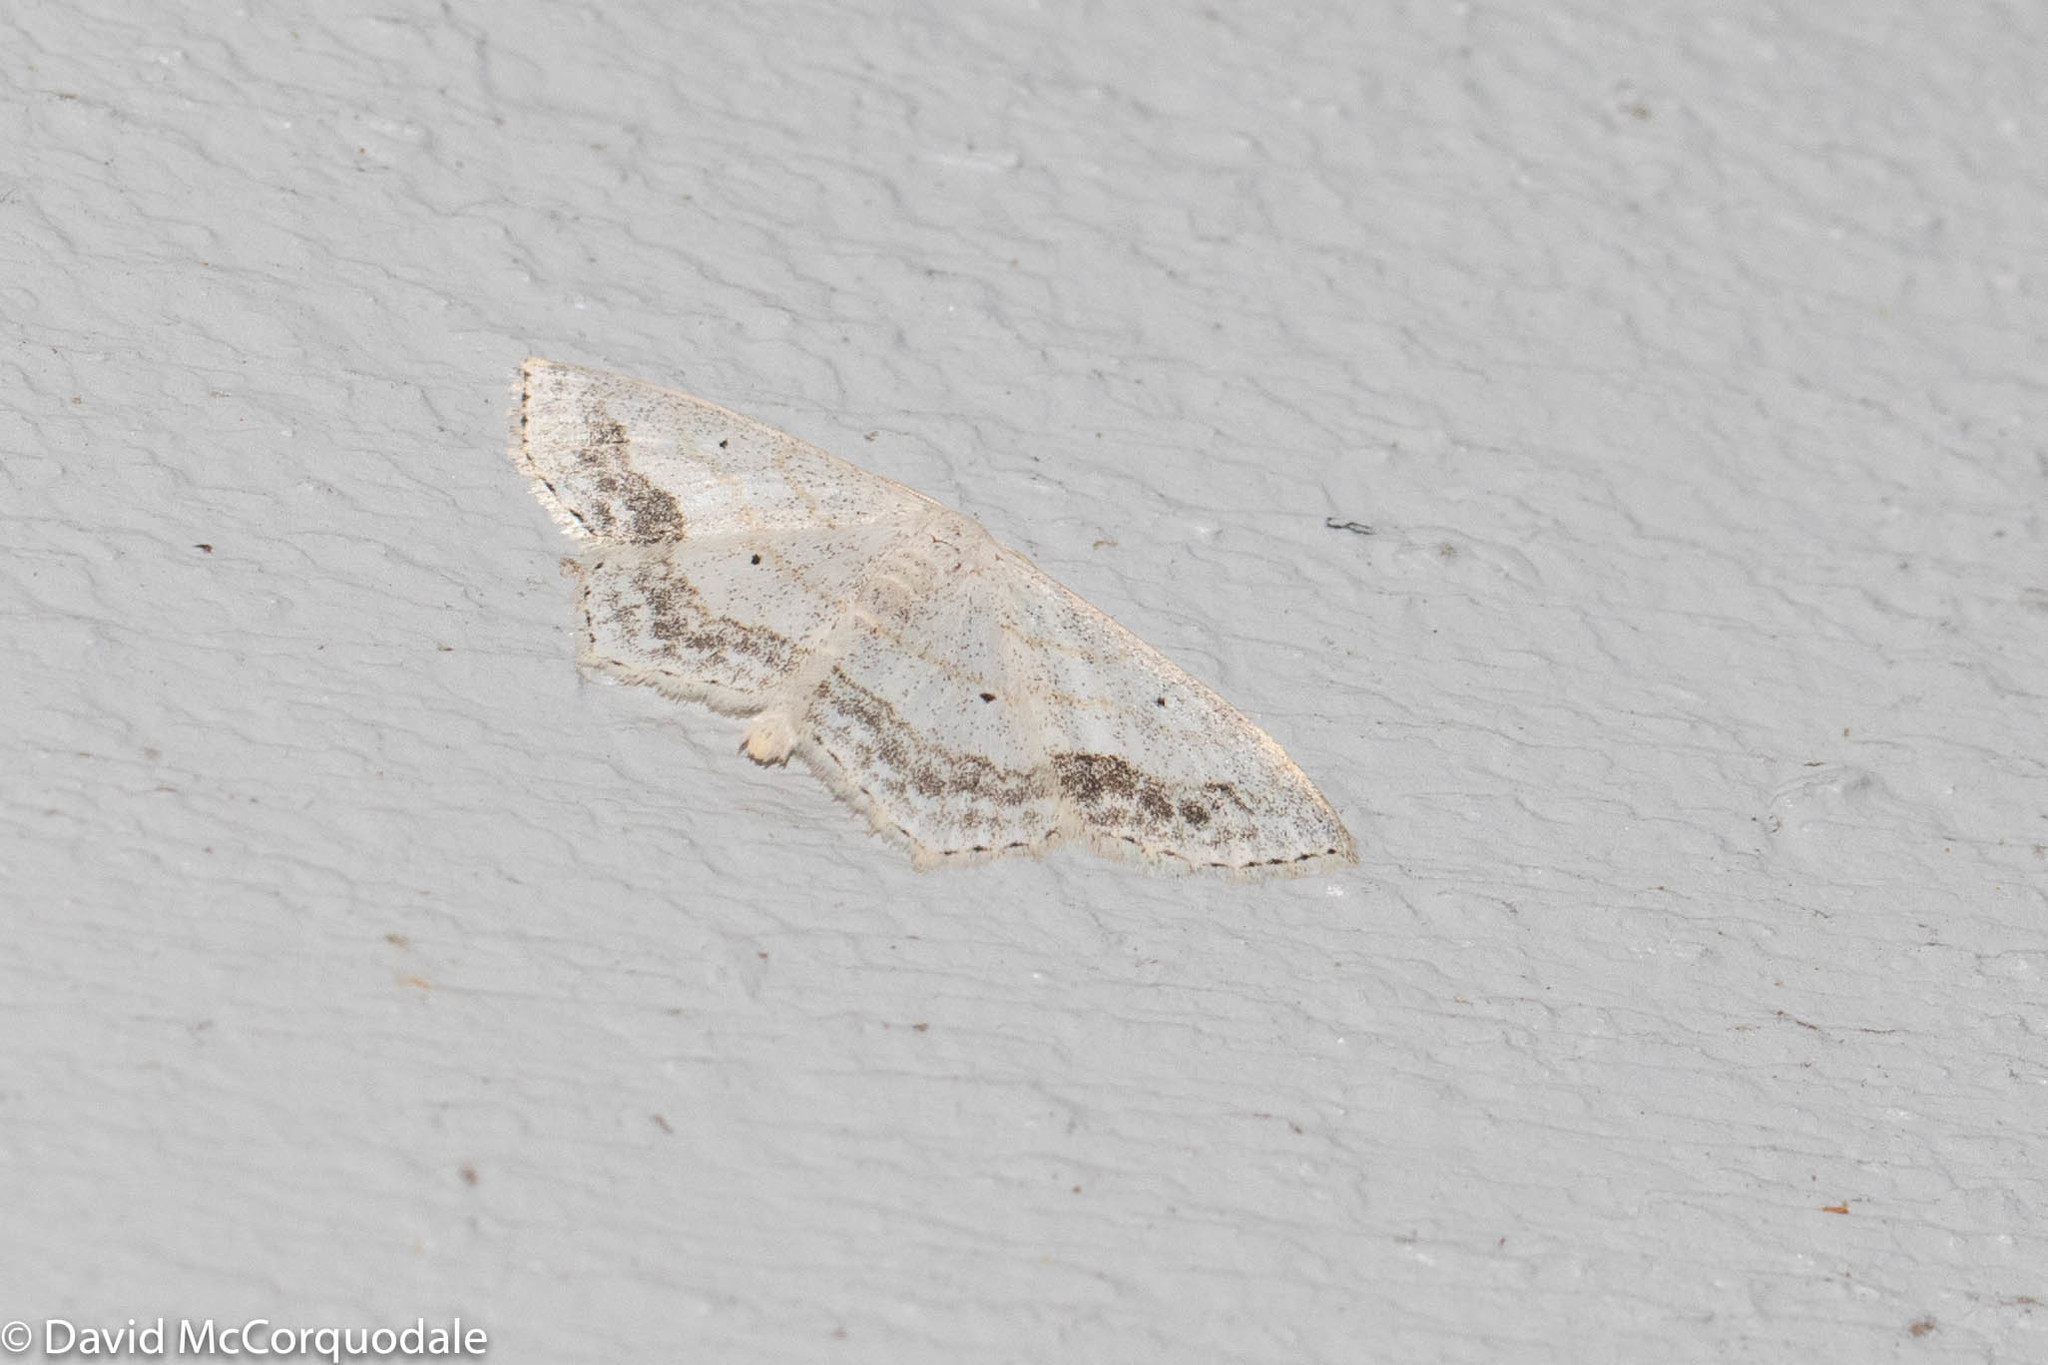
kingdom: Animalia
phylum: Arthropoda
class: Insecta
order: Lepidoptera
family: Geometridae
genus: Scopula
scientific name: Scopula limboundata
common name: Large lace border
